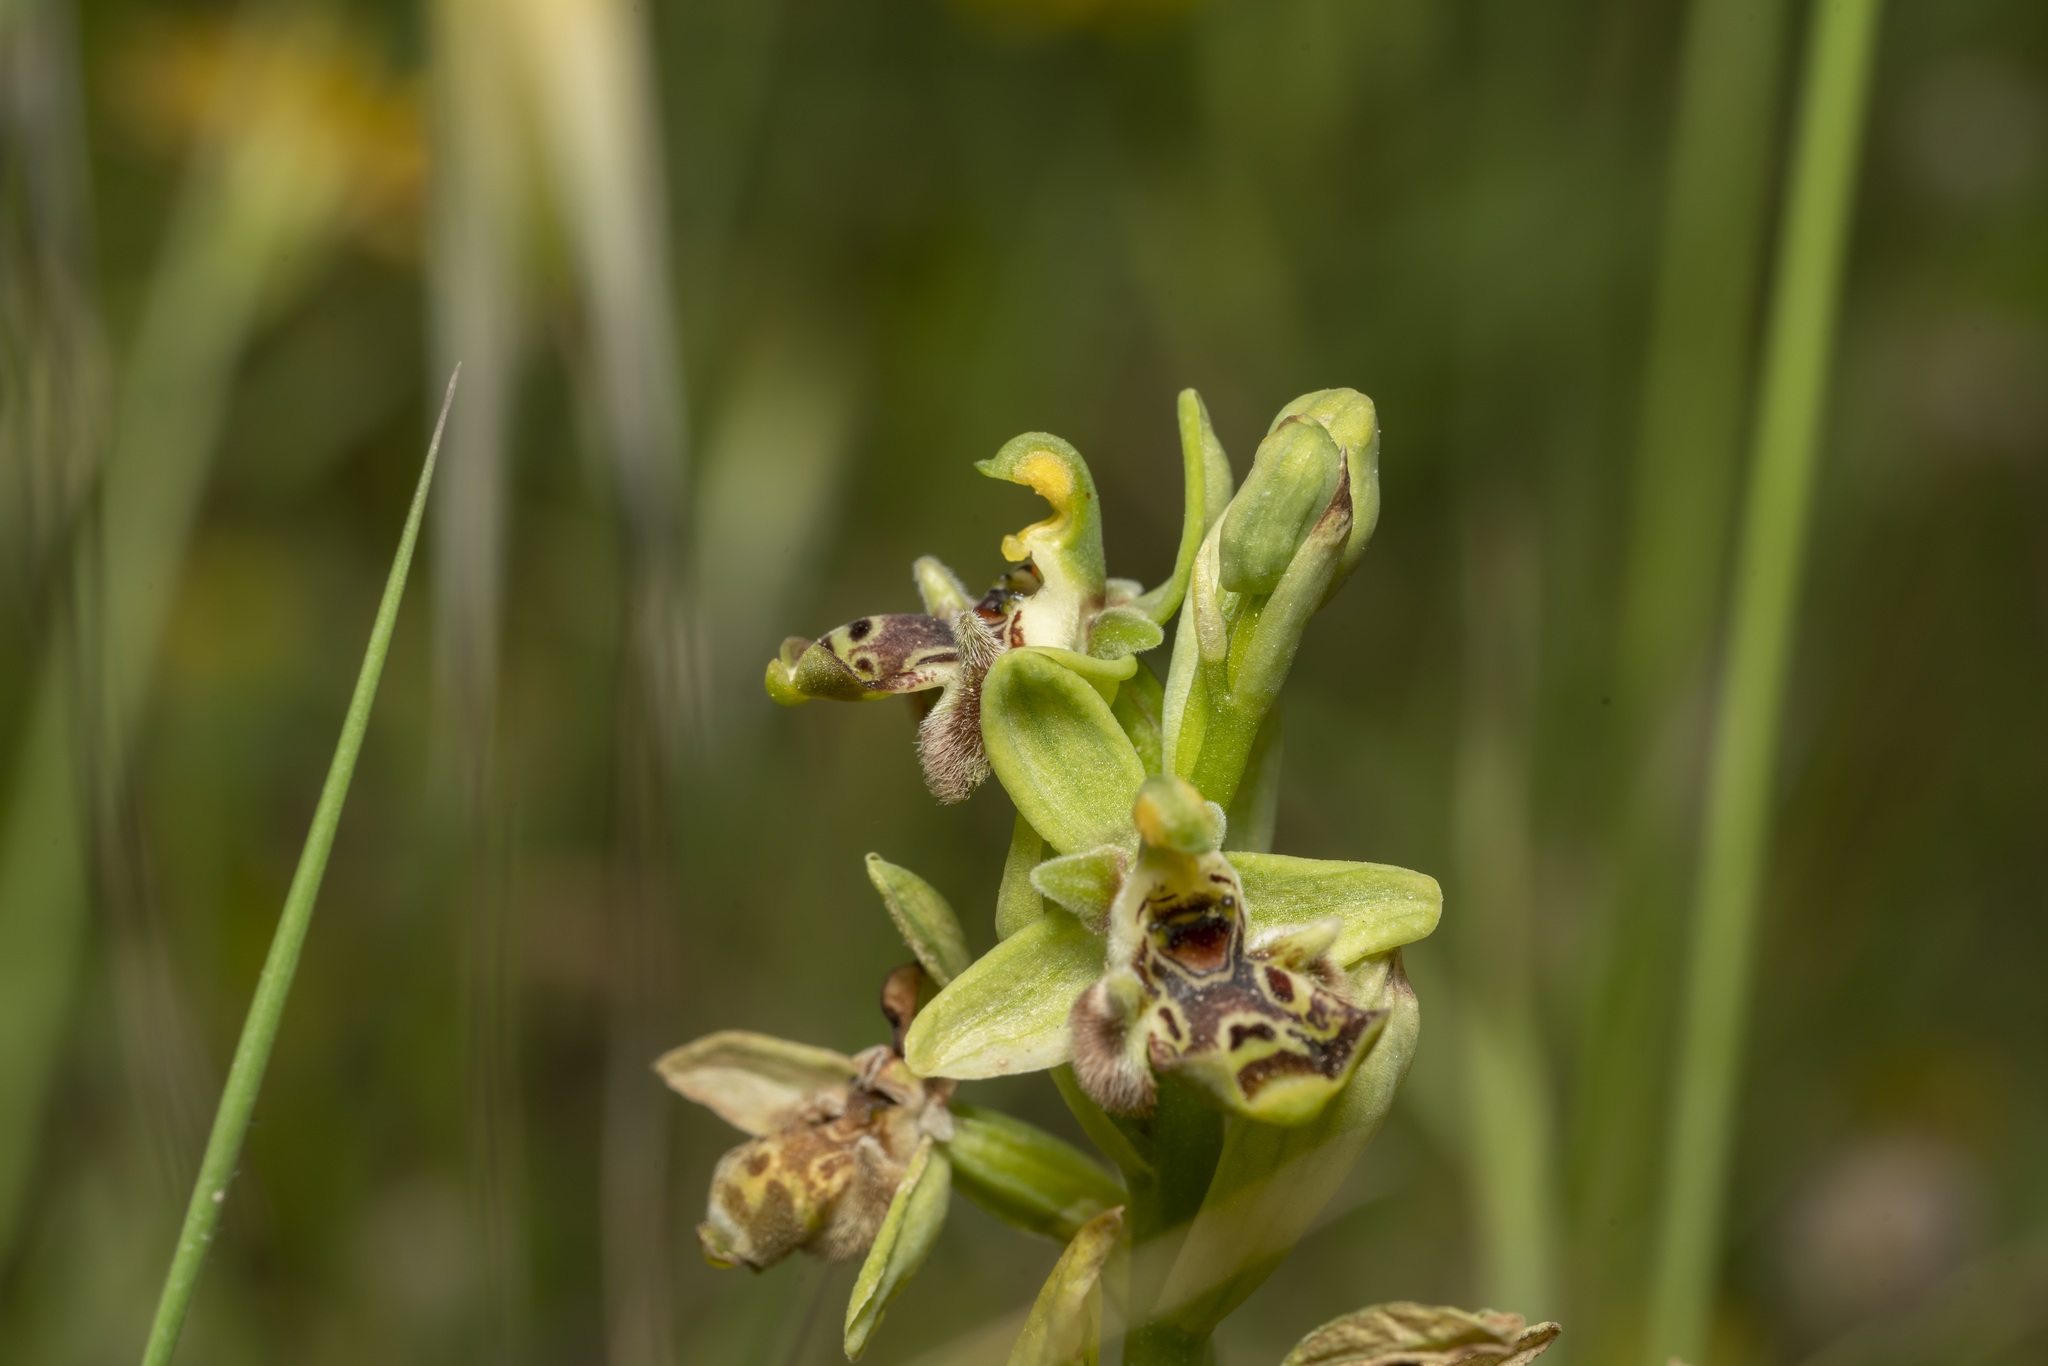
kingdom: Plantae
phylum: Tracheophyta
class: Liliopsida
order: Asparagales
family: Orchidaceae
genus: Ophrys
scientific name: Ophrys scolopax
